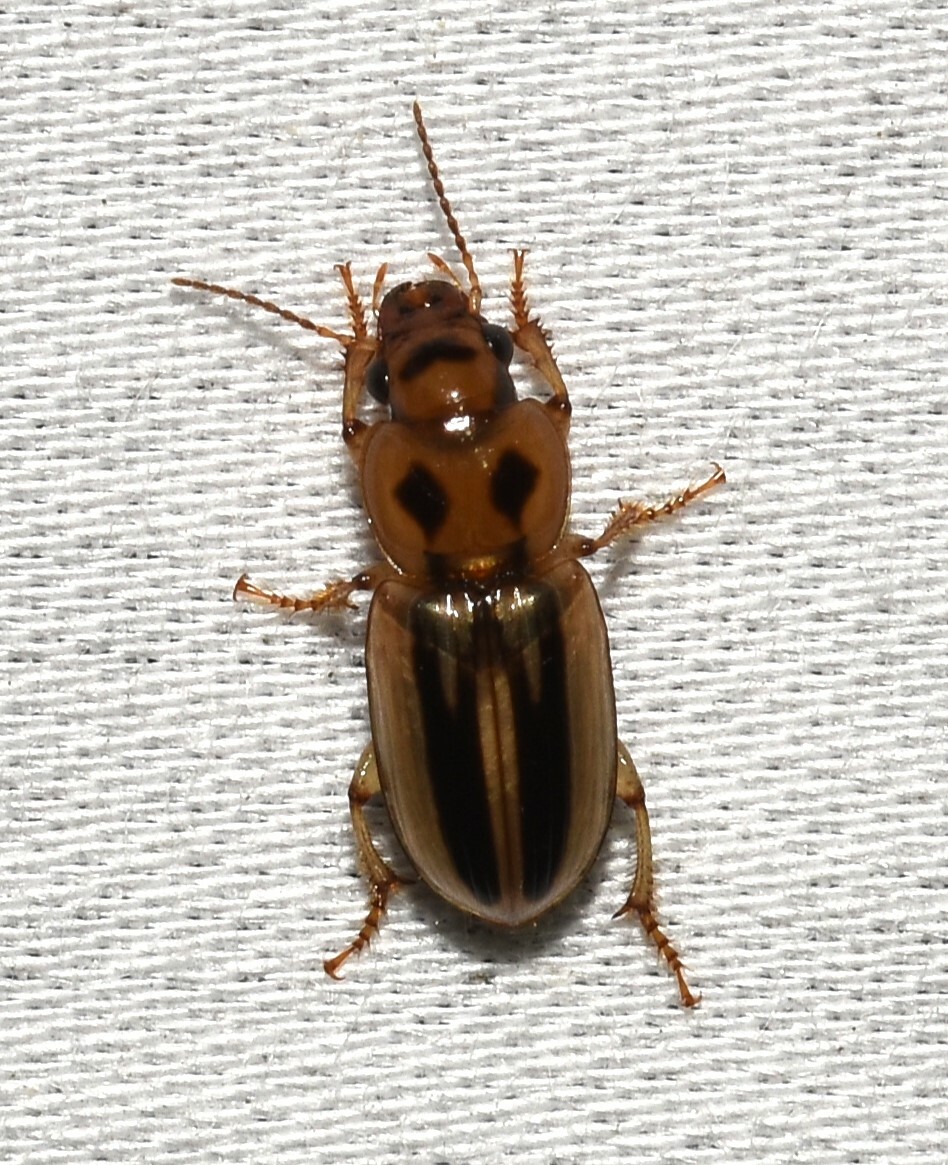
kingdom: Animalia
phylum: Arthropoda
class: Insecta
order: Coleoptera
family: Carabidae
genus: Stenolophus
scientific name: Stenolophus lineola
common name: Lined stenolophus
